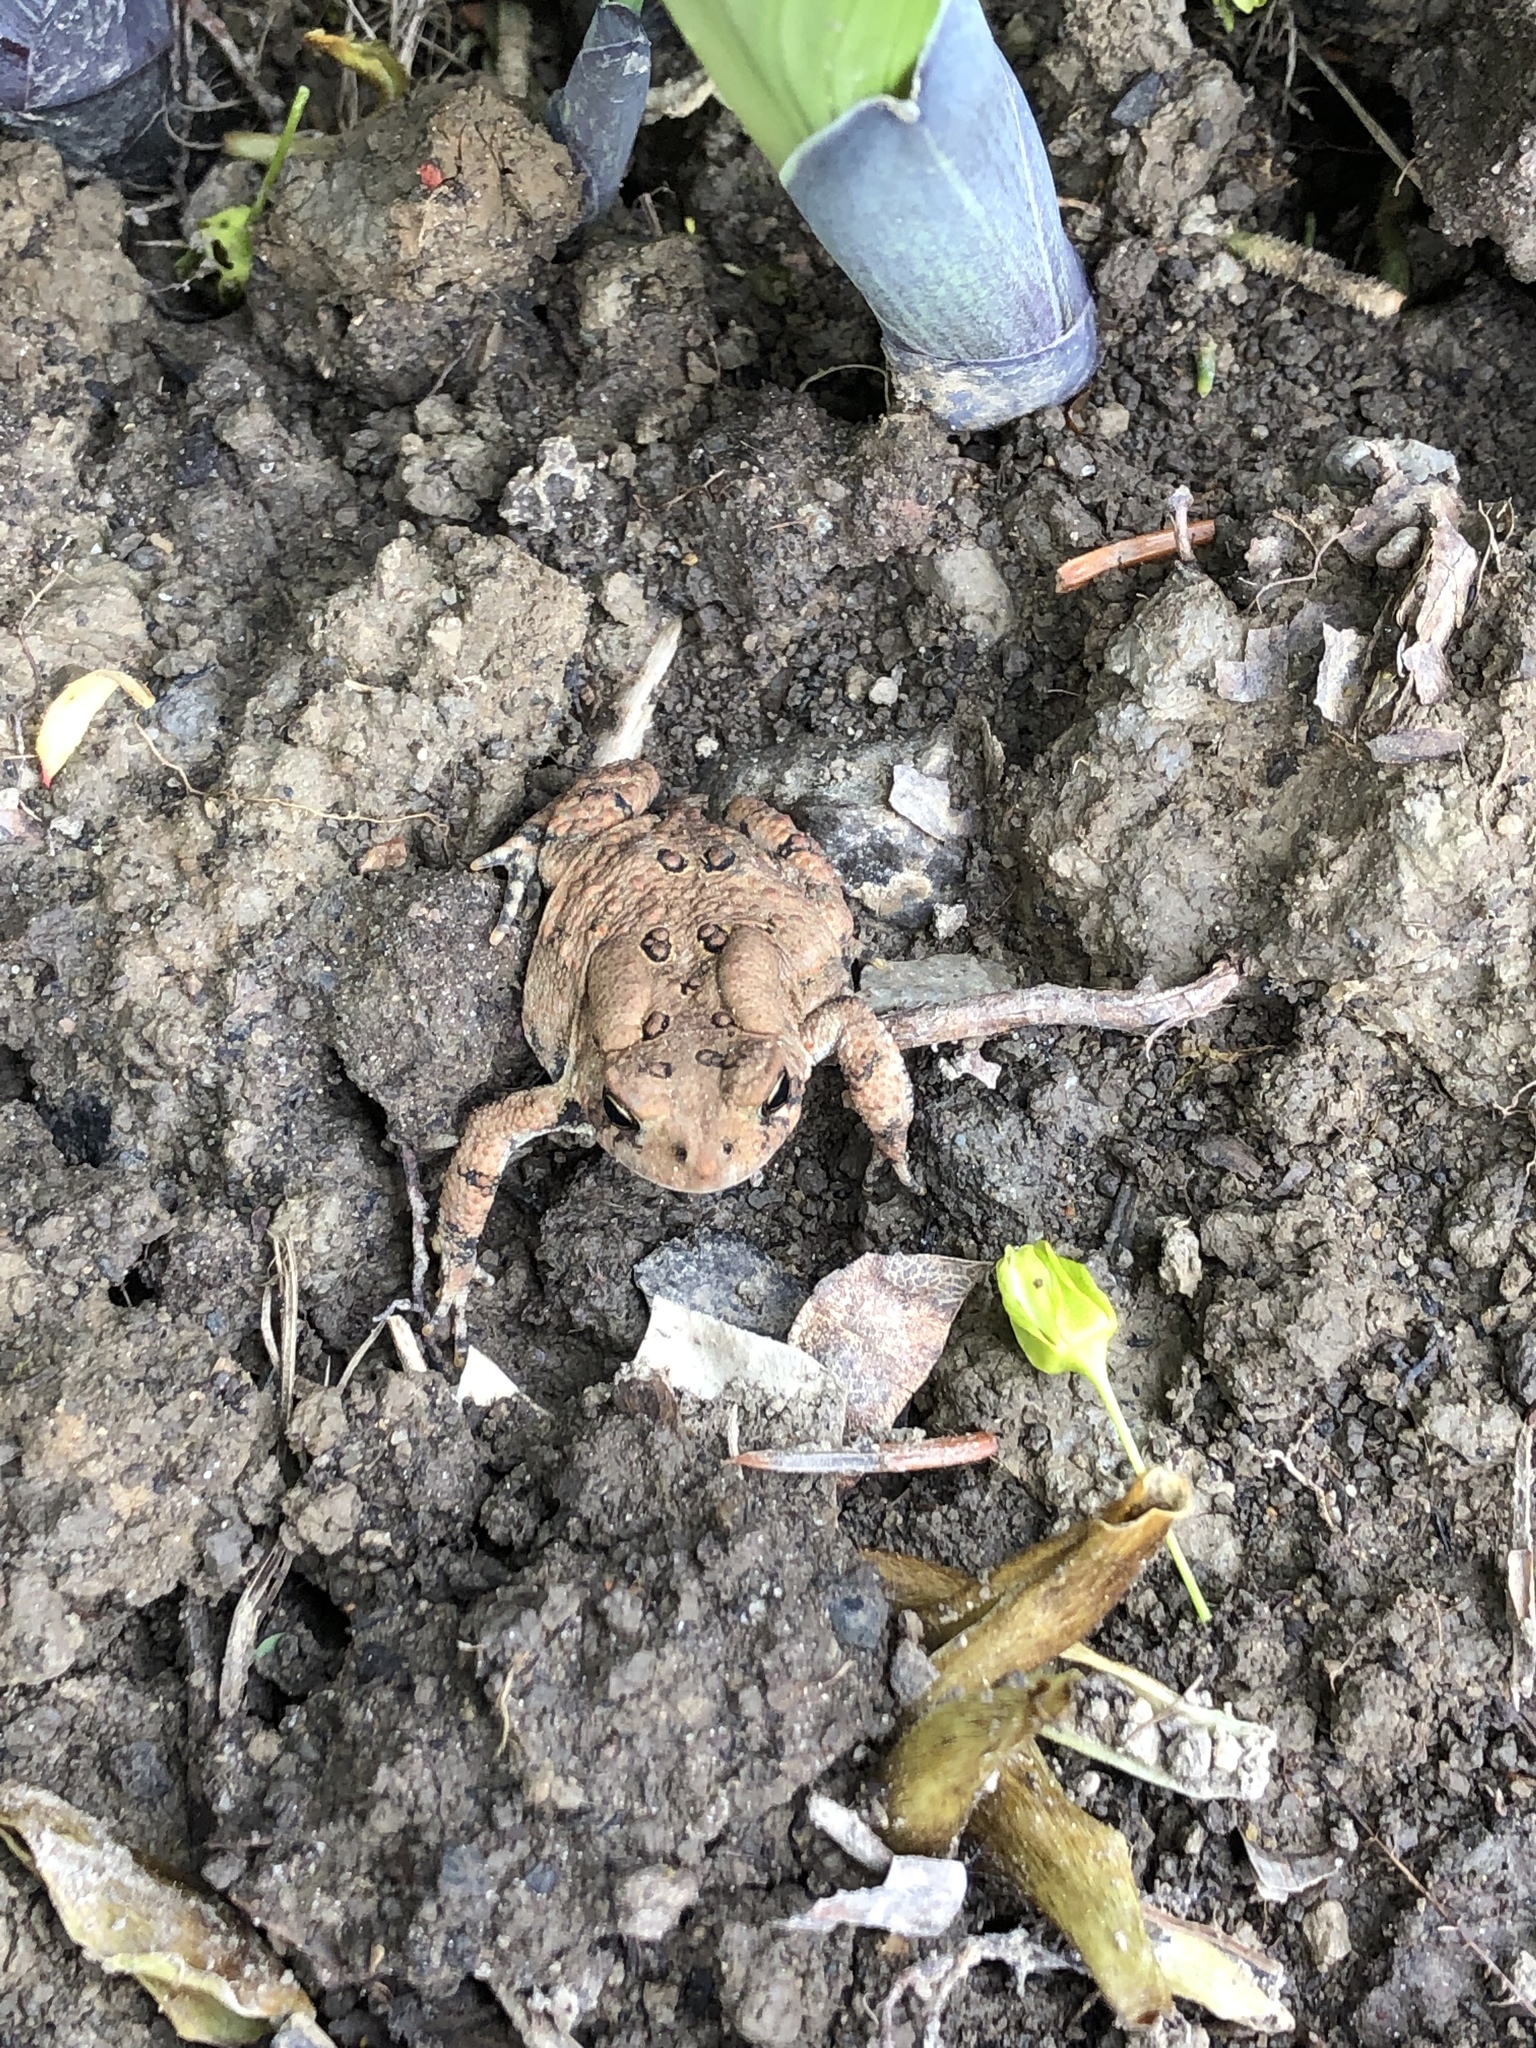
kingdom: Animalia
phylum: Chordata
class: Amphibia
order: Anura
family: Bufonidae
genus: Anaxyrus
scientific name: Anaxyrus americanus
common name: American toad
